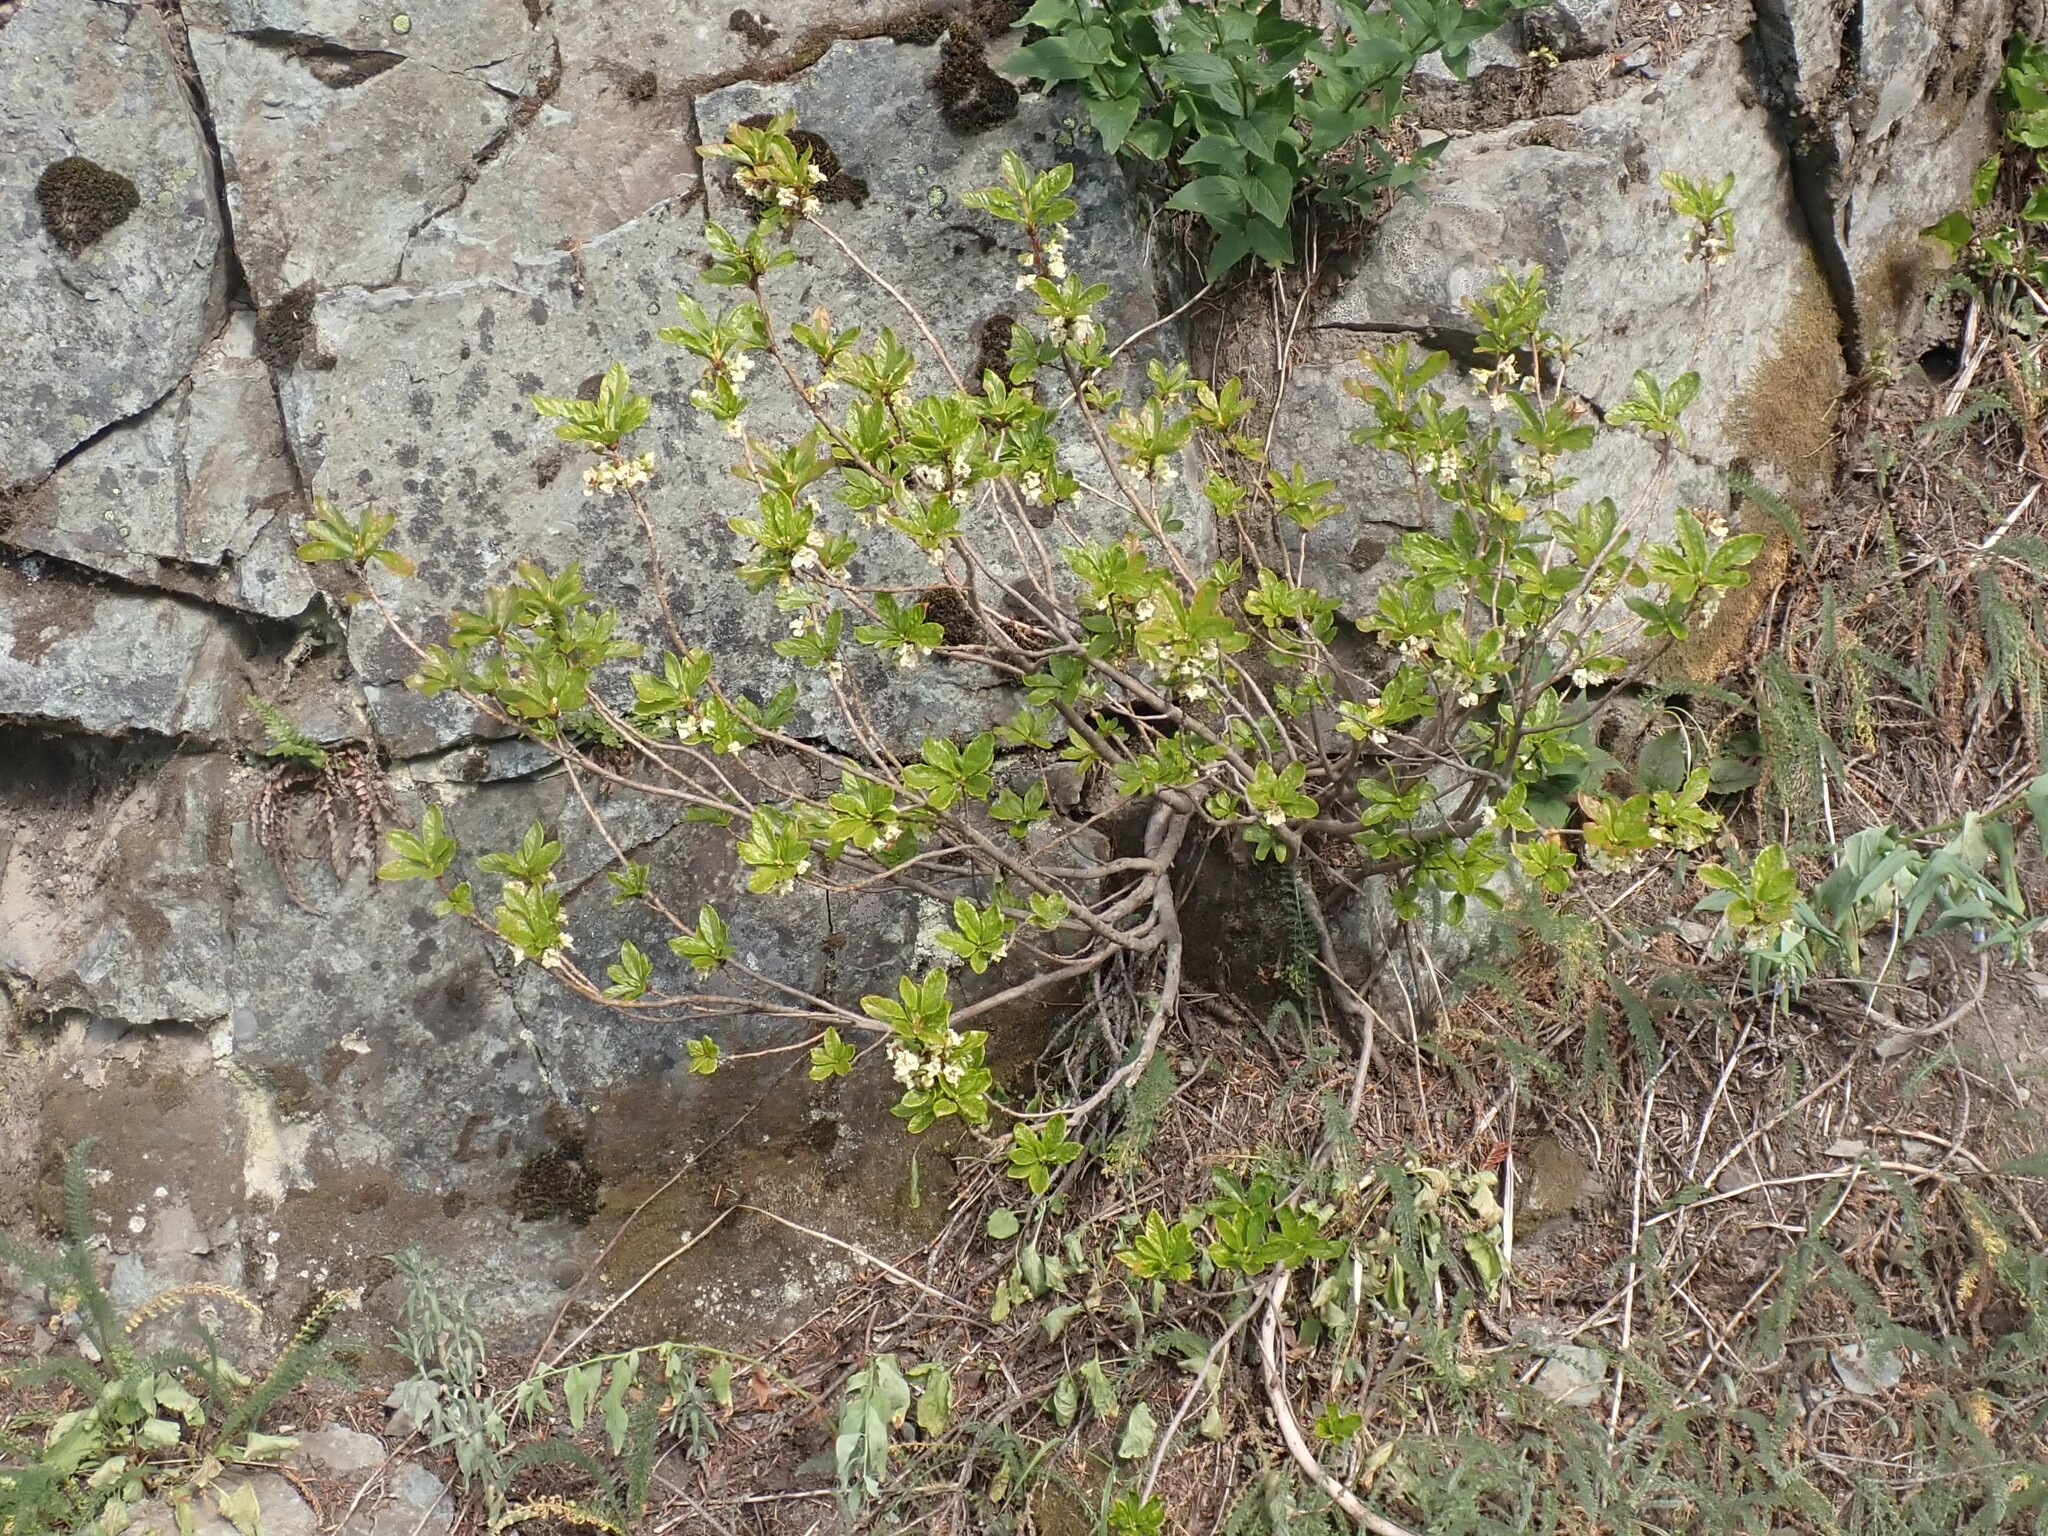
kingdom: Plantae
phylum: Tracheophyta
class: Magnoliopsida
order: Ericales
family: Ericaceae
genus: Rhododendron
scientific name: Rhododendron albiflorum
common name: White rhododendron
